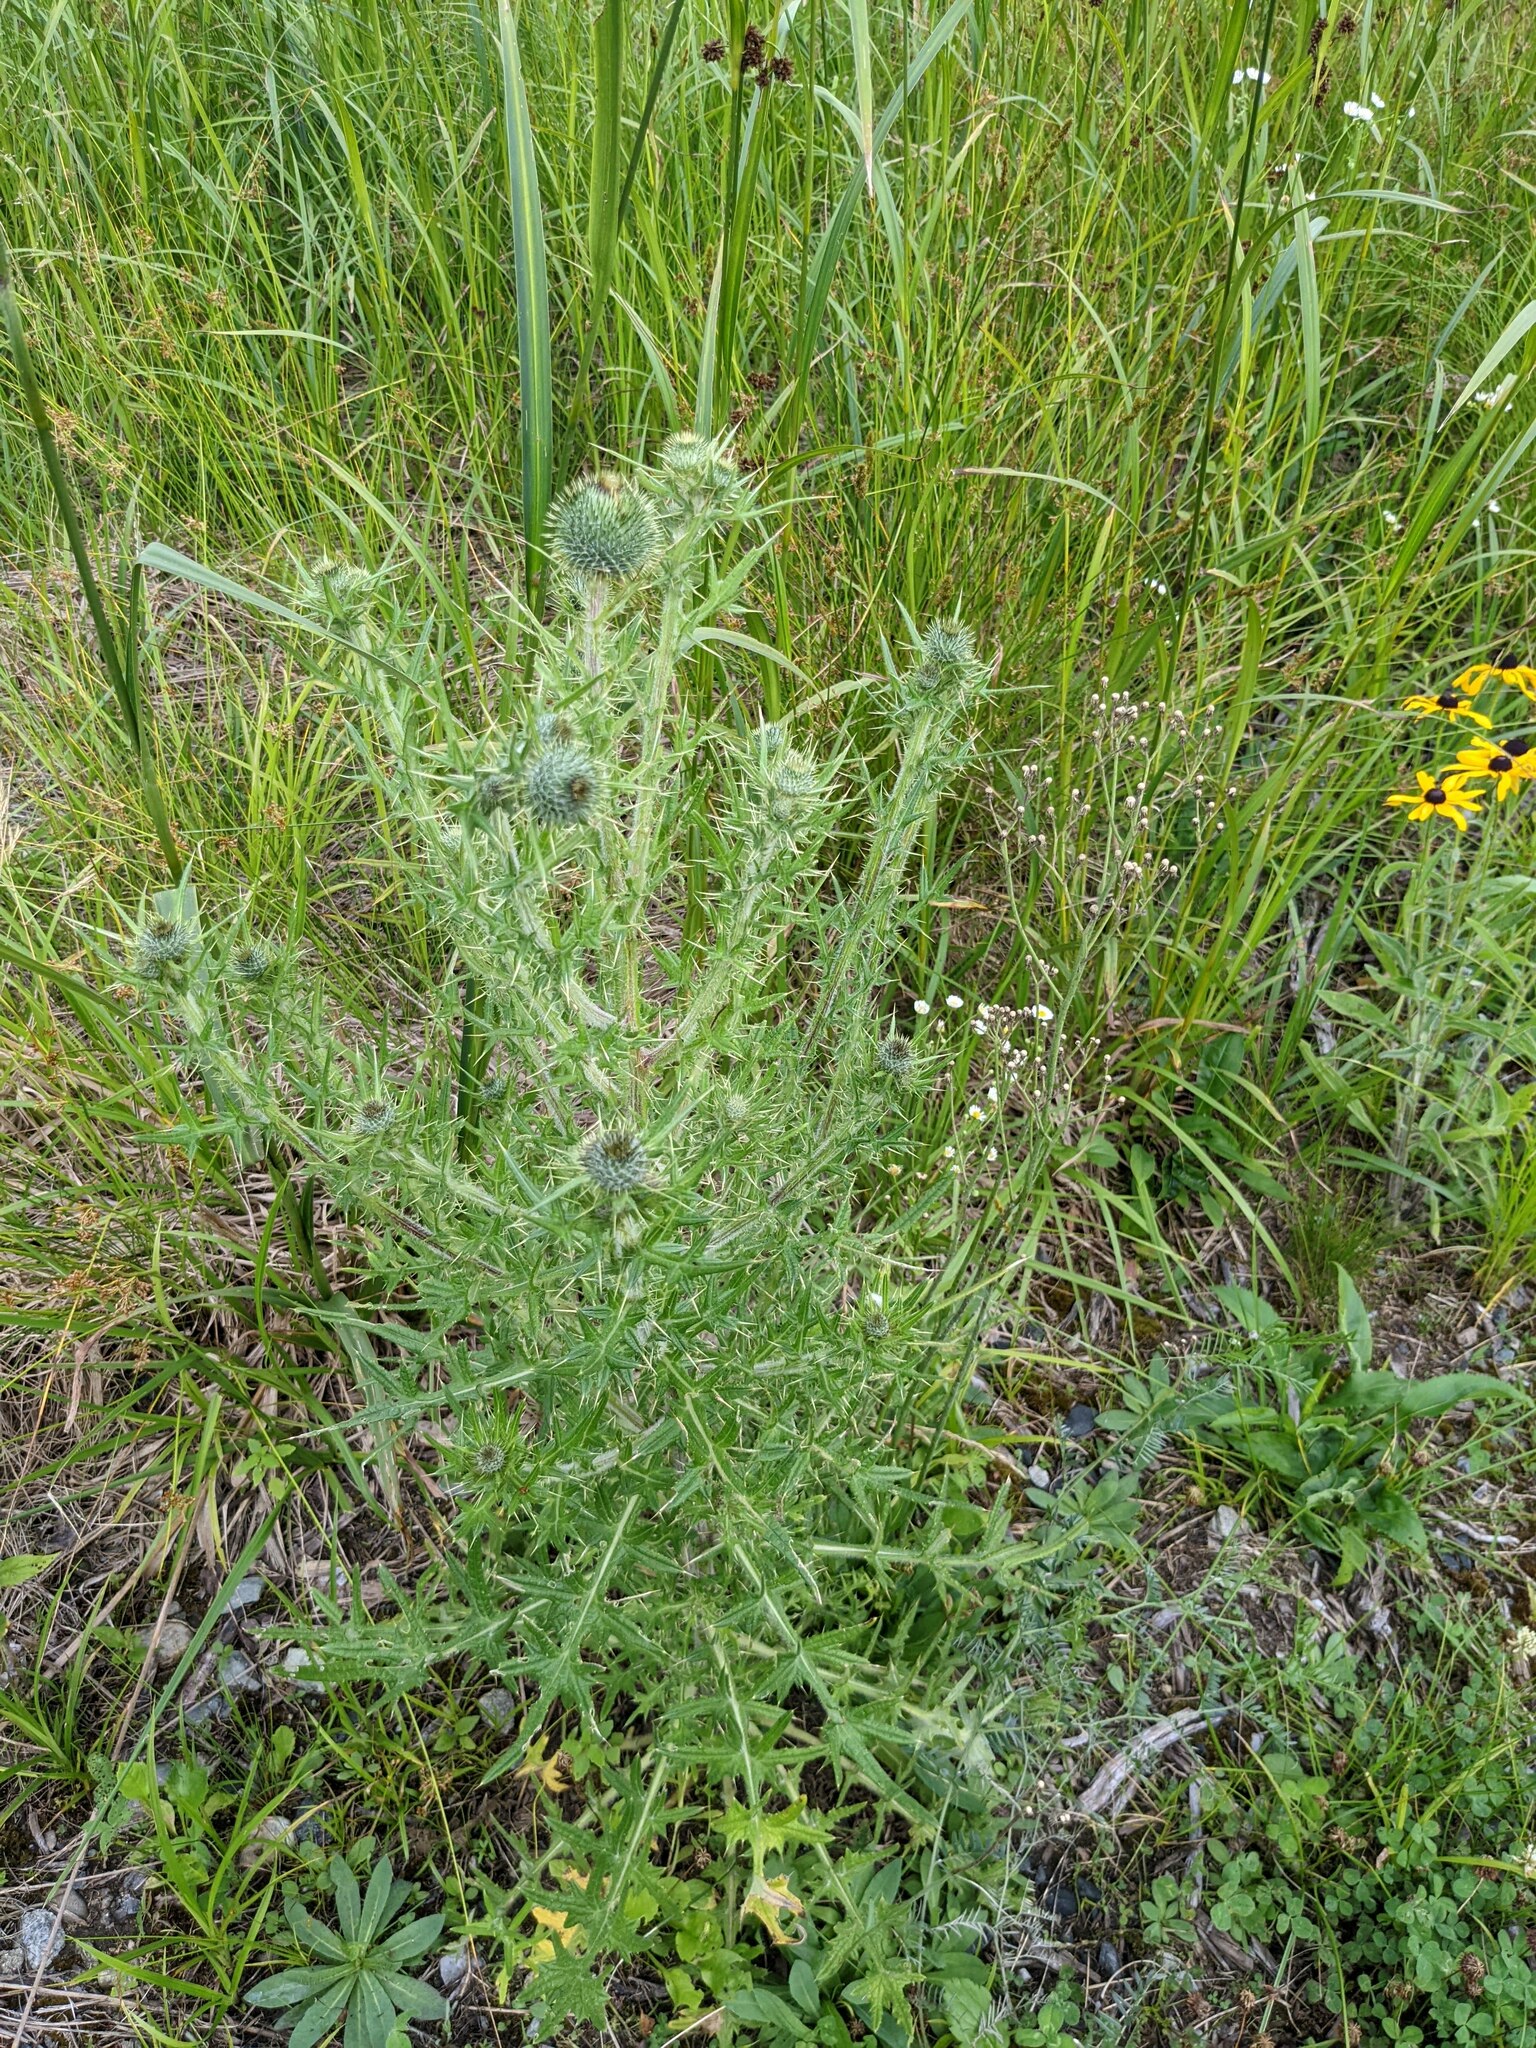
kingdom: Plantae
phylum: Tracheophyta
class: Magnoliopsida
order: Asterales
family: Asteraceae
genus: Cirsium
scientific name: Cirsium vulgare
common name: Bull thistle
